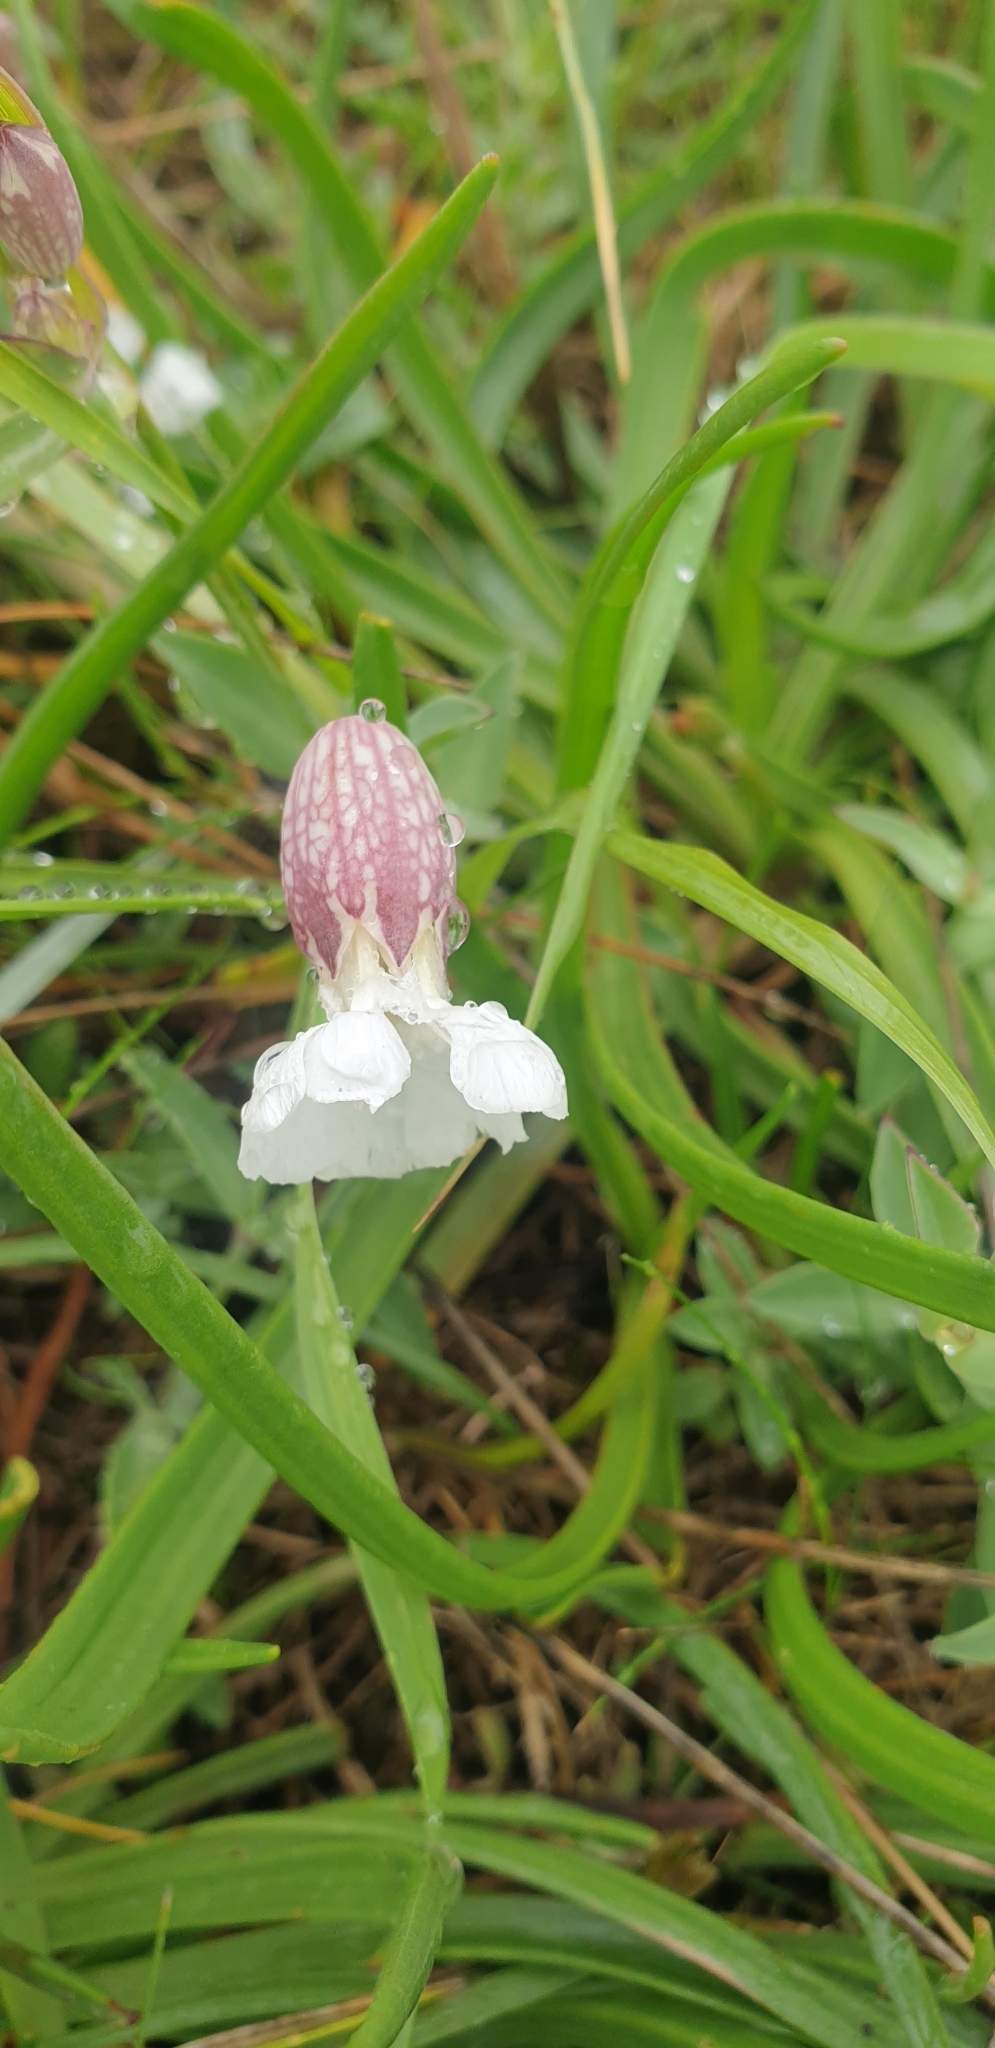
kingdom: Plantae
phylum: Tracheophyta
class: Magnoliopsida
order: Caryophyllales
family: Caryophyllaceae
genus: Silene
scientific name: Silene uniflora
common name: Sea campion
